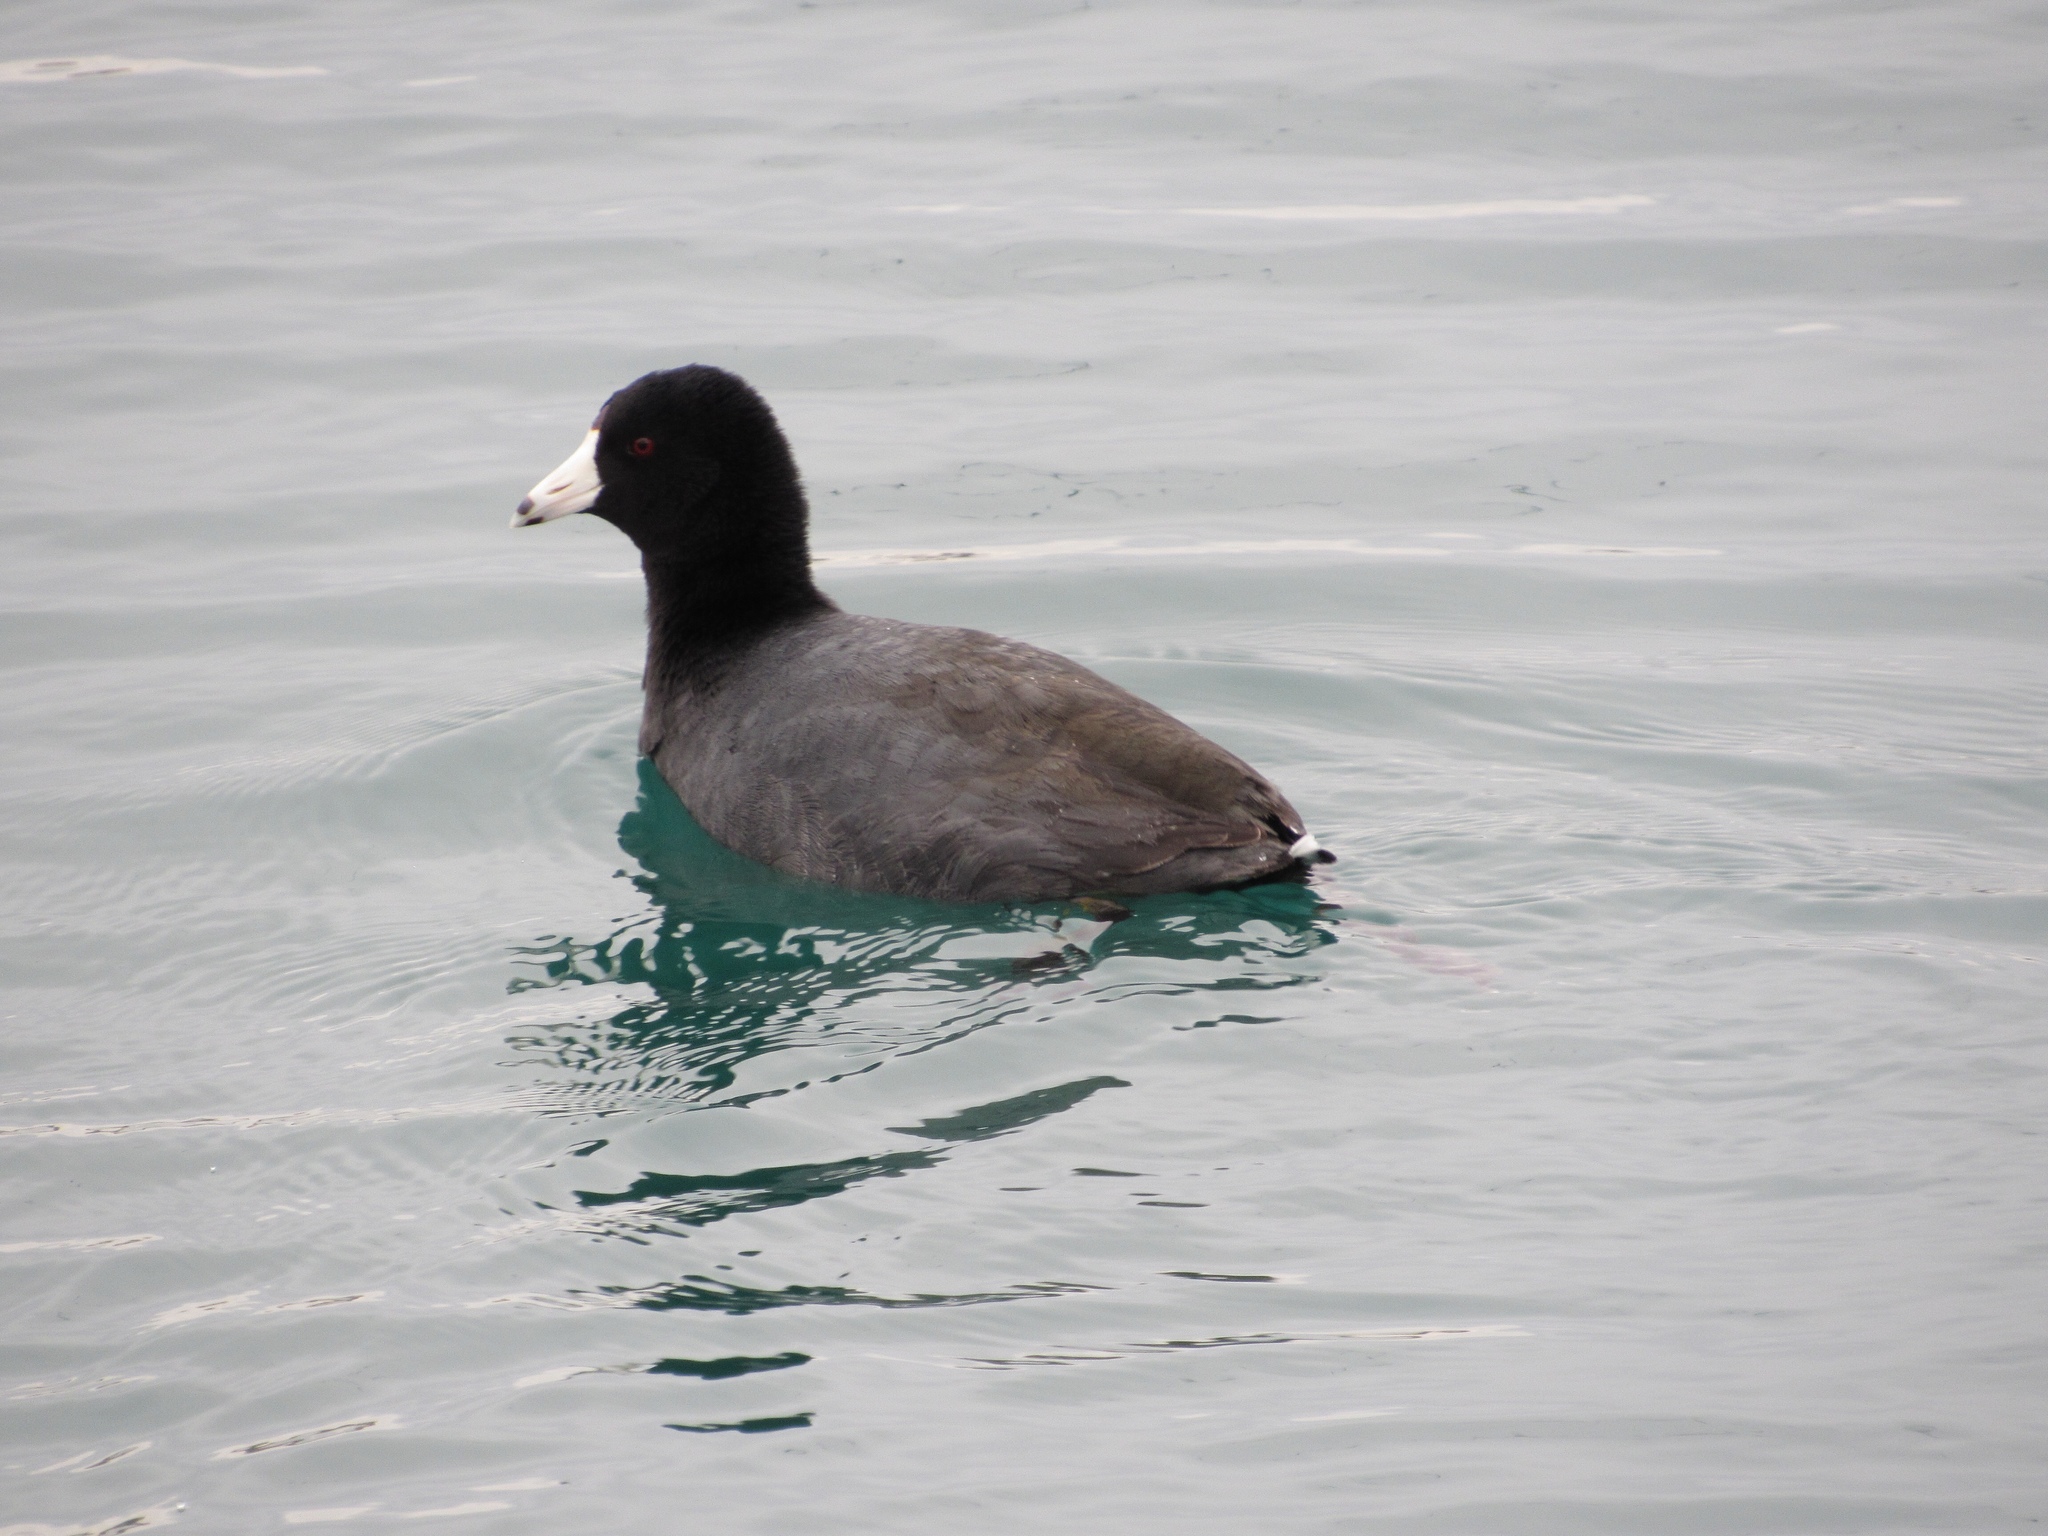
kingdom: Animalia
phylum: Chordata
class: Aves
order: Gruiformes
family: Rallidae
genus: Fulica
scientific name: Fulica americana
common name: American coot
